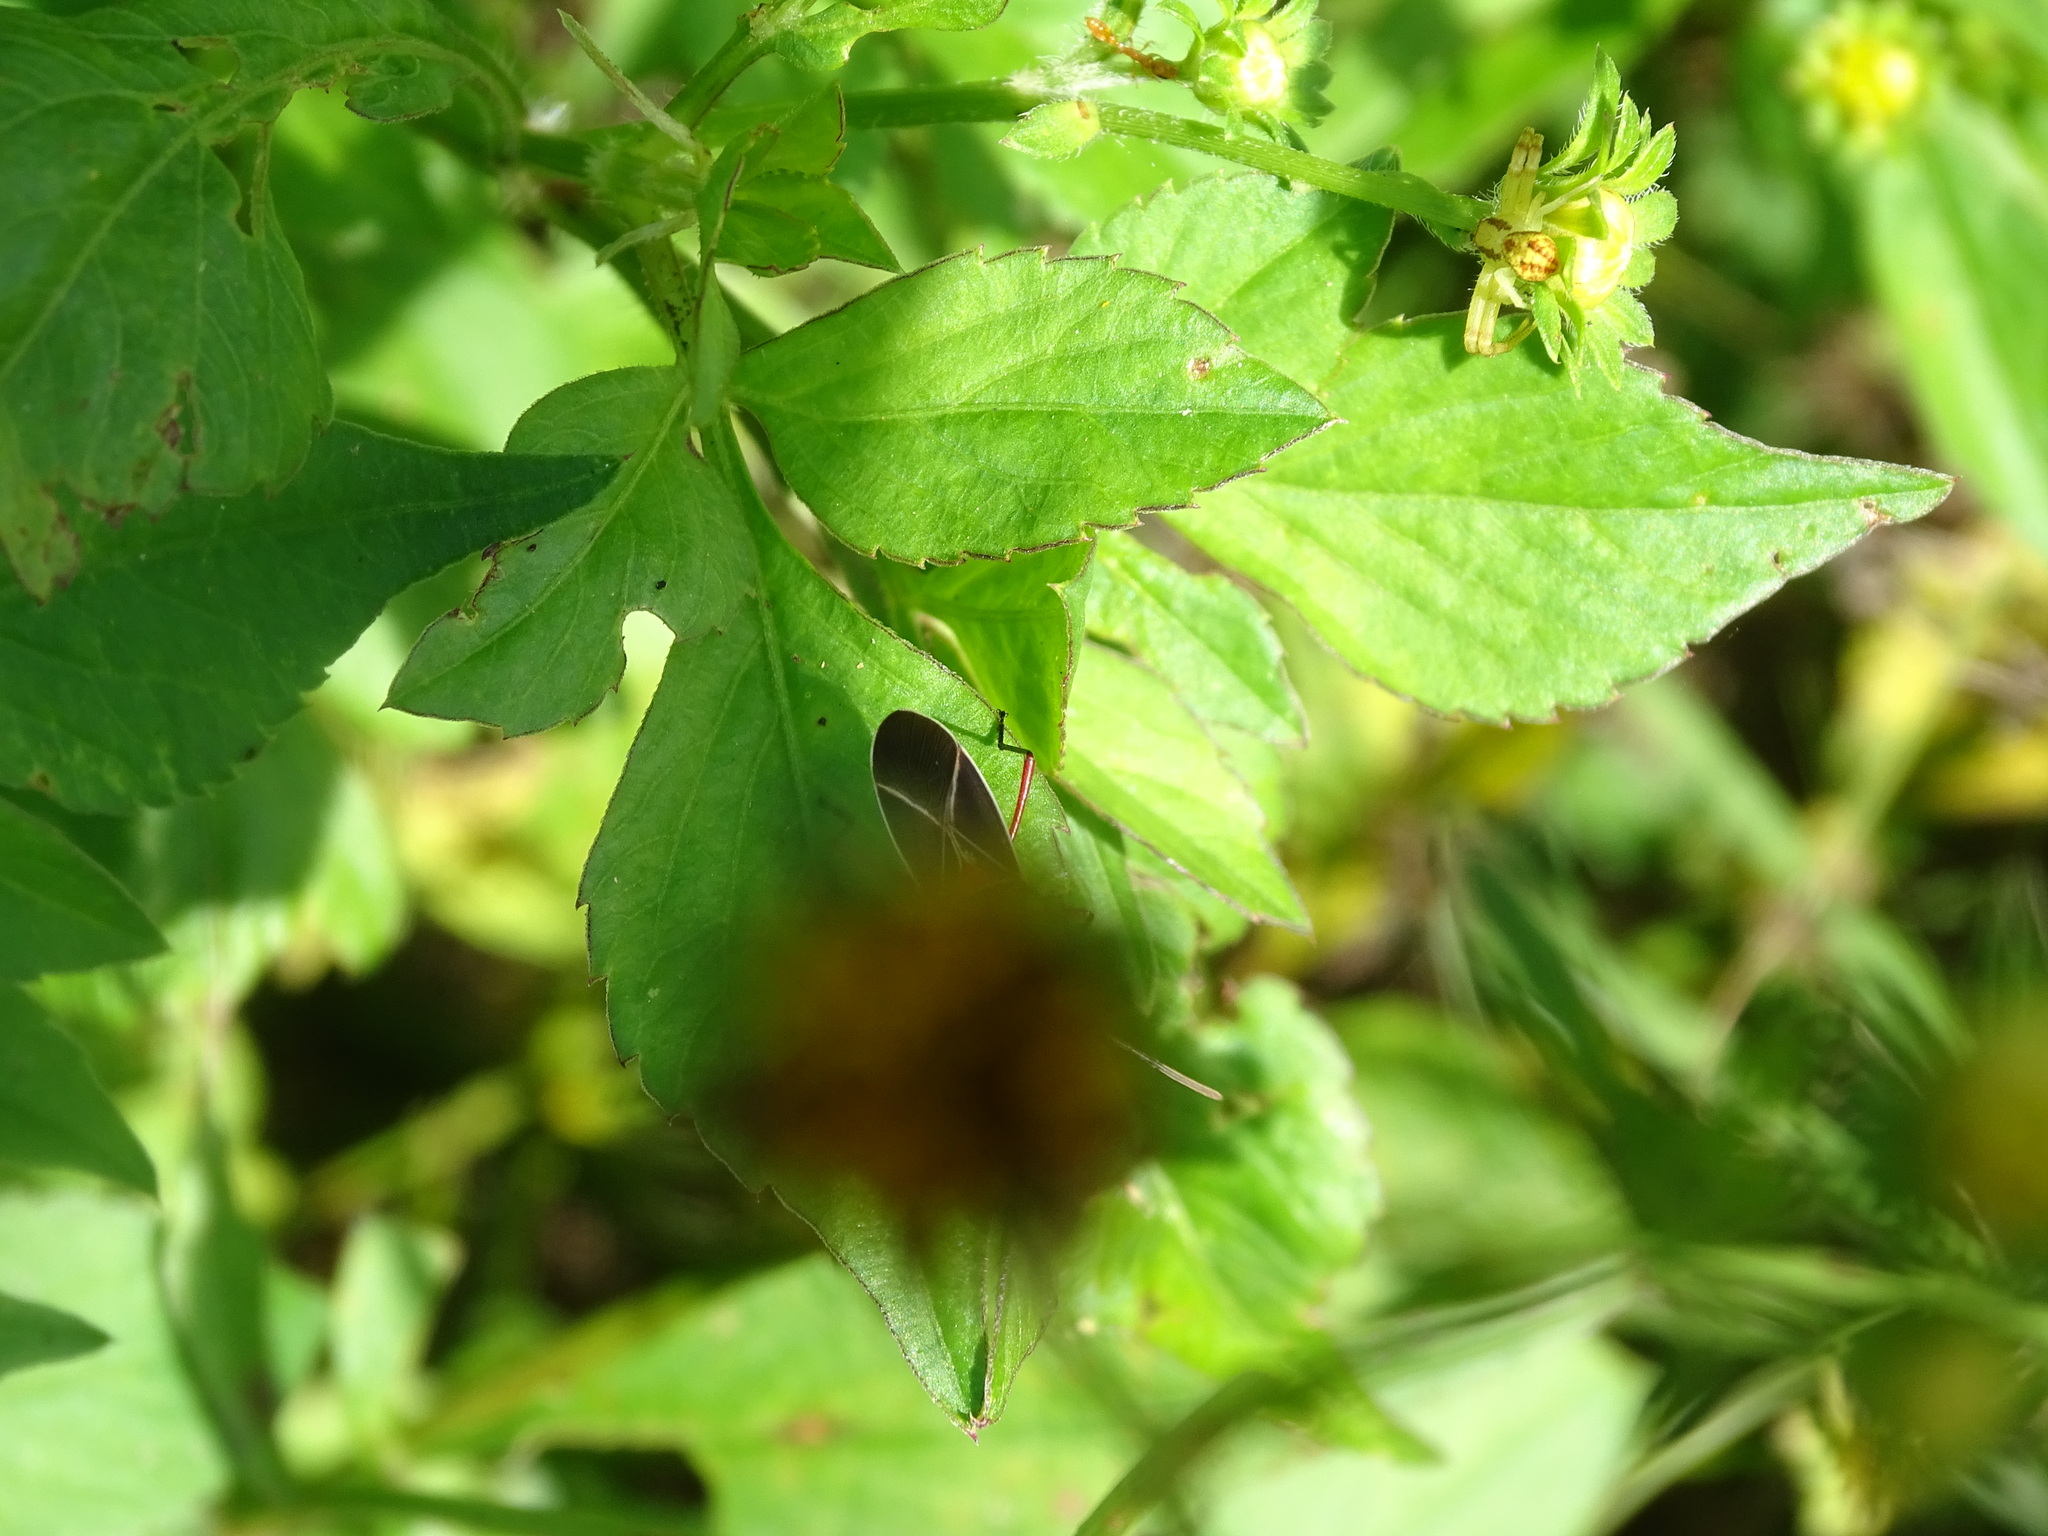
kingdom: Animalia
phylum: Arthropoda
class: Insecta
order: Hemiptera
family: Pyrrhocoridae
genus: Dysdercus
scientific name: Dysdercus suturellus
